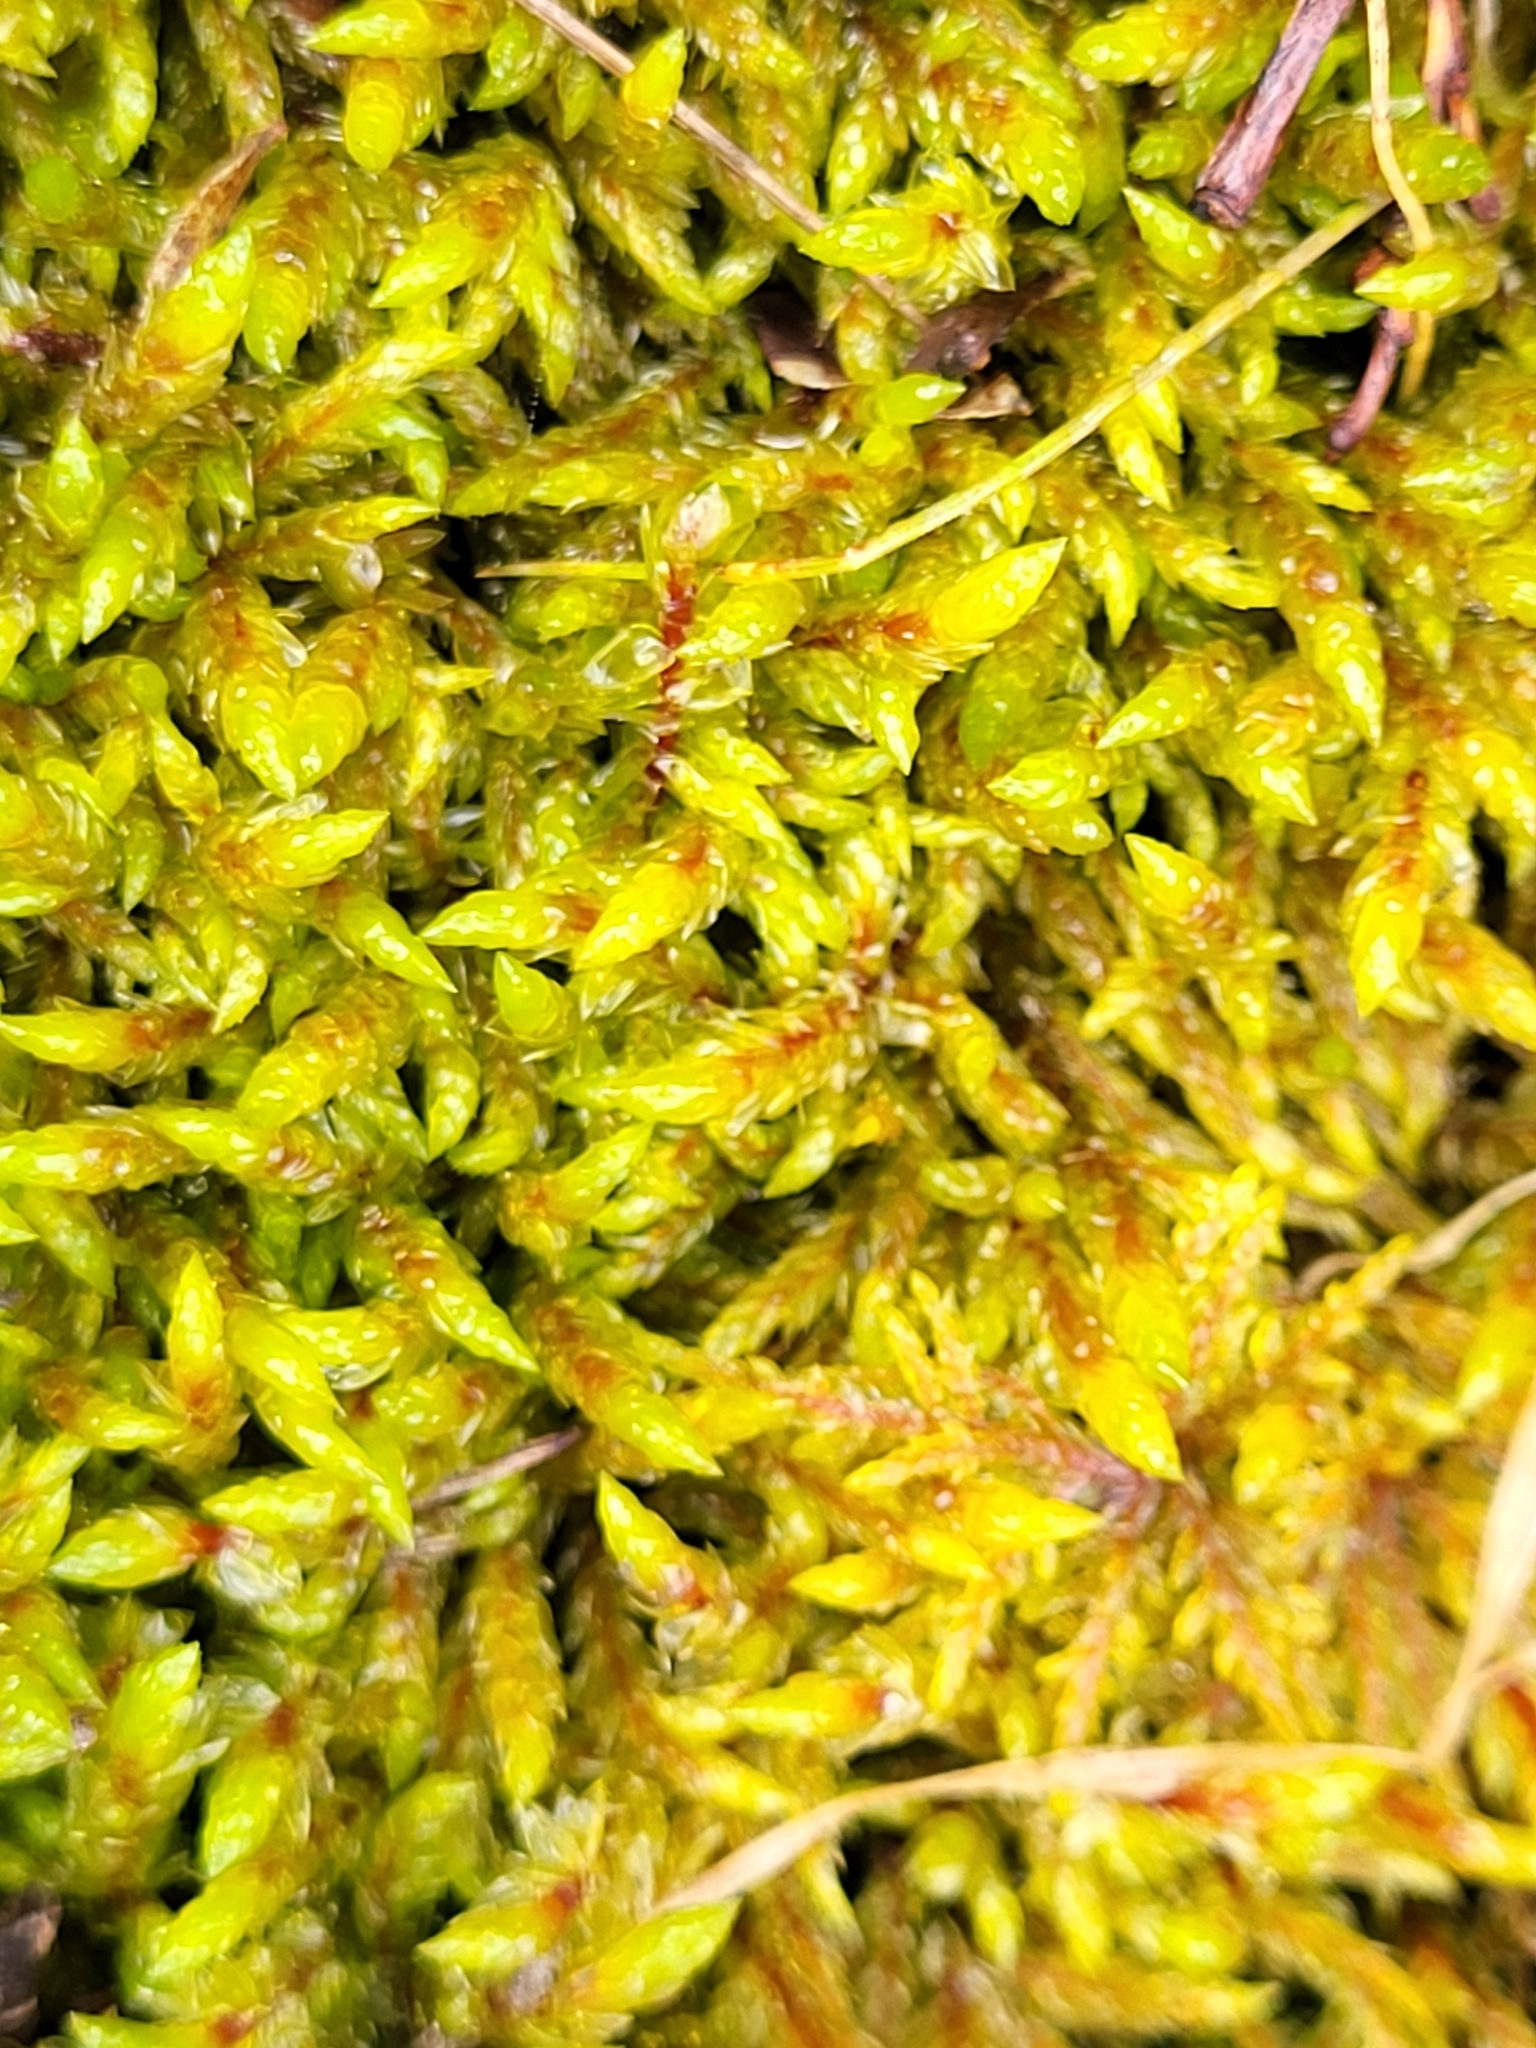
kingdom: Plantae
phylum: Bryophyta
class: Bryopsida
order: Hypnales
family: Hylocomiaceae
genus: Pleurozium
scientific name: Pleurozium schreberi
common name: Red-stemmed feather moss
